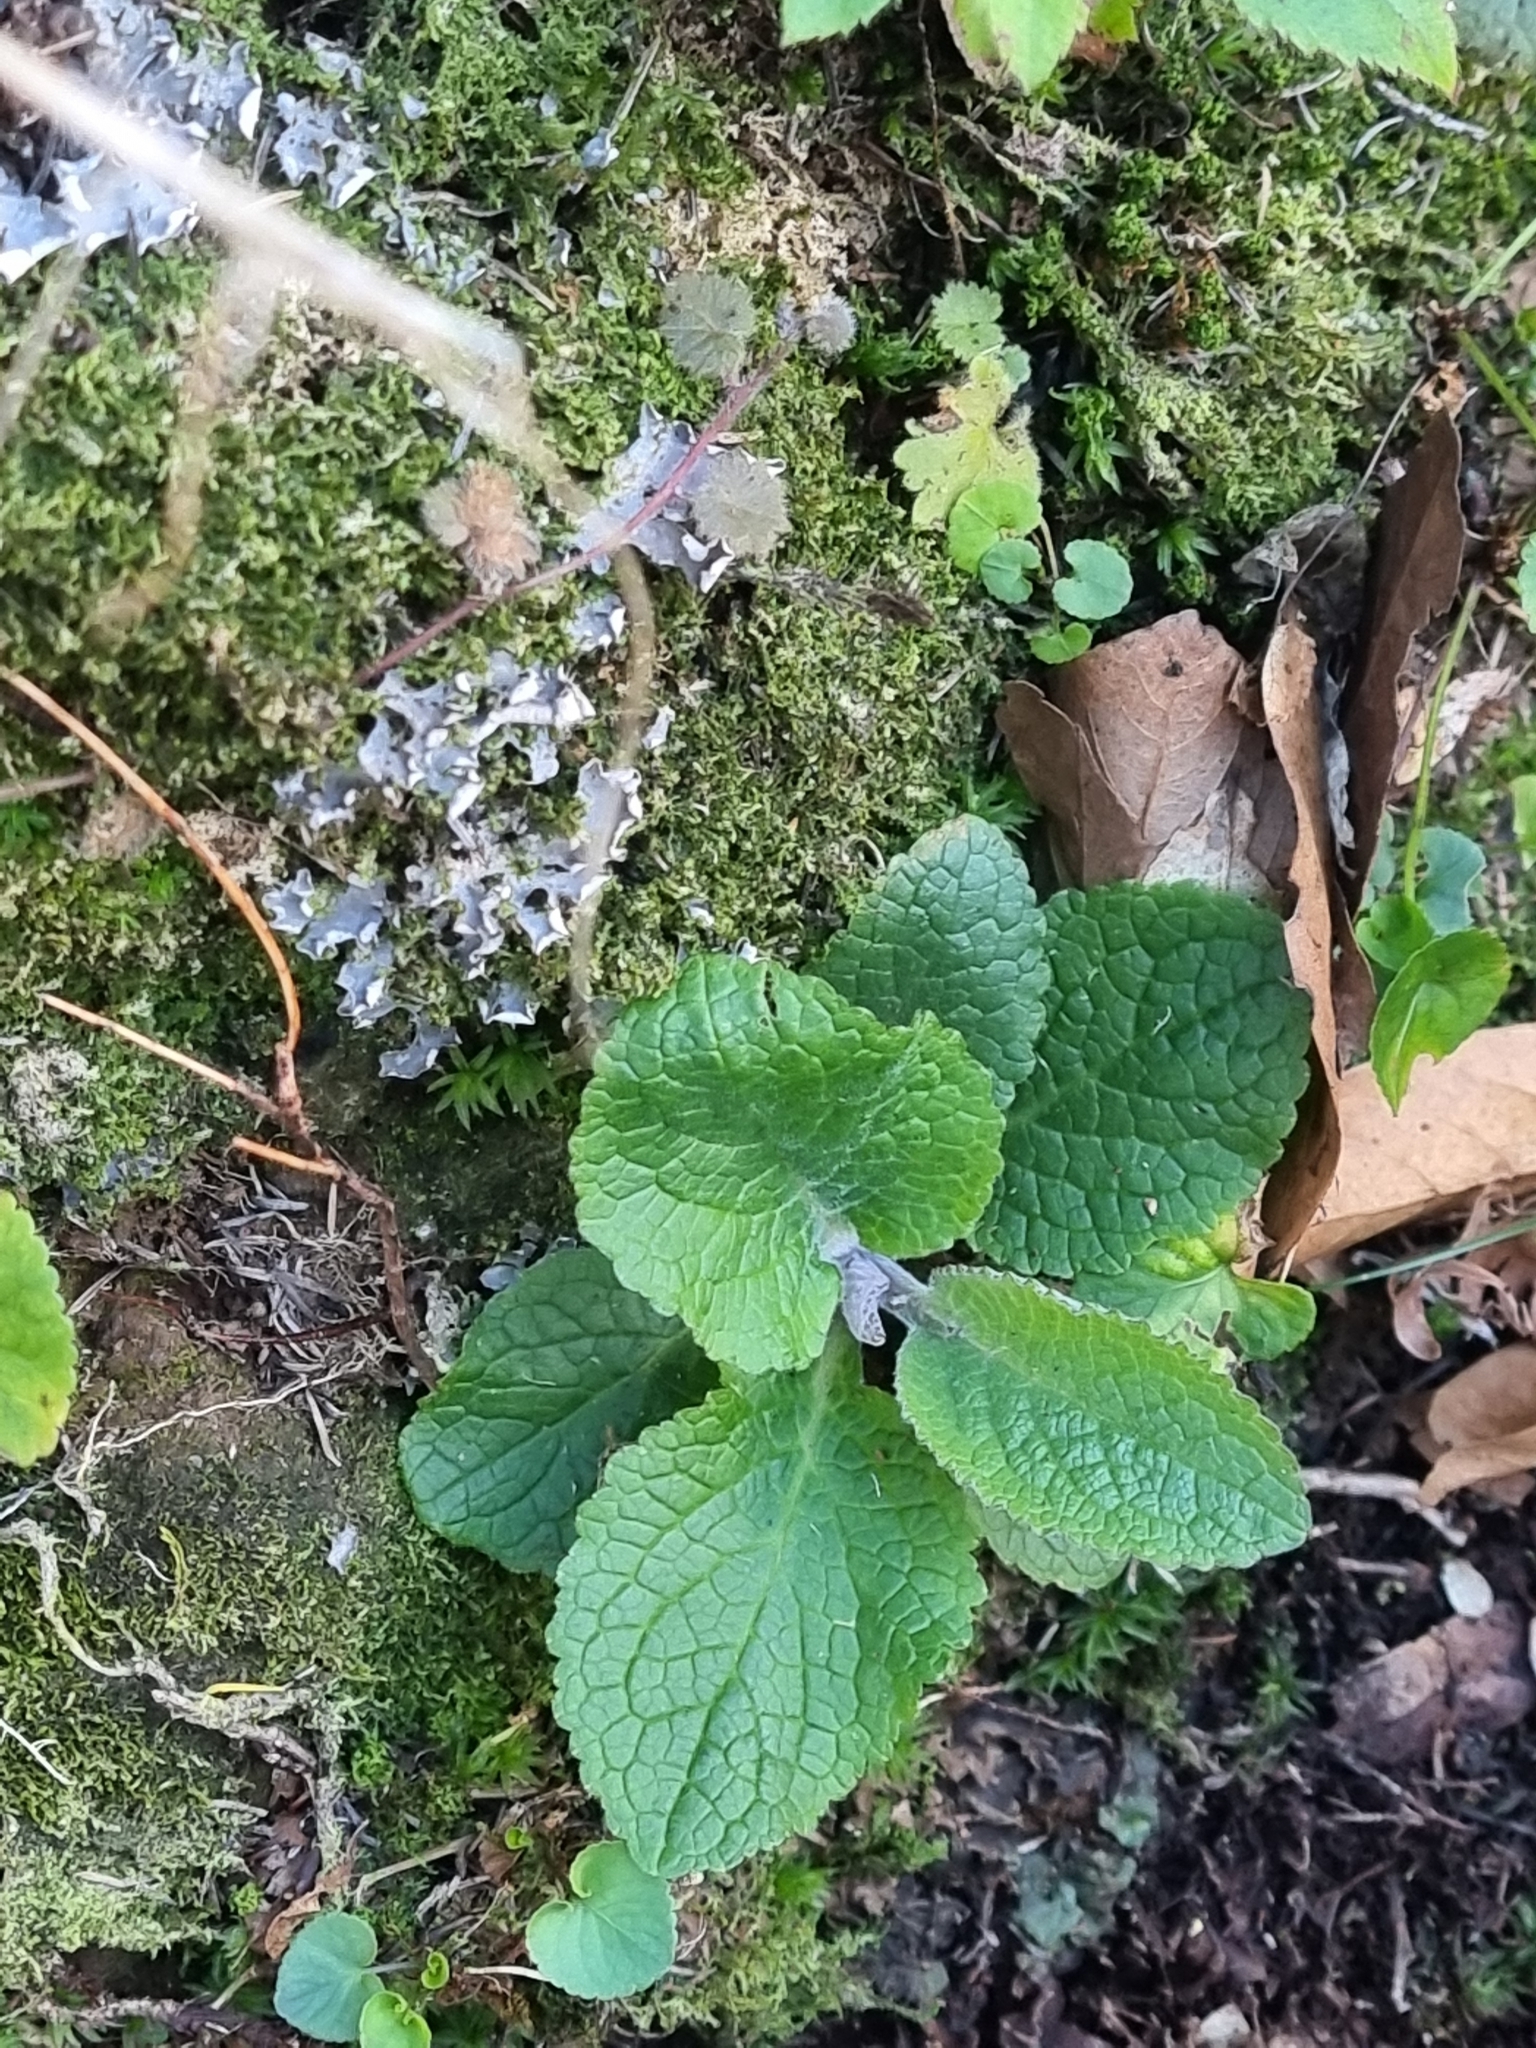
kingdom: Plantae
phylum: Tracheophyta
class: Magnoliopsida
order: Lamiales
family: Plantaginaceae
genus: Digitalis
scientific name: Digitalis purpurea
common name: Foxglove
